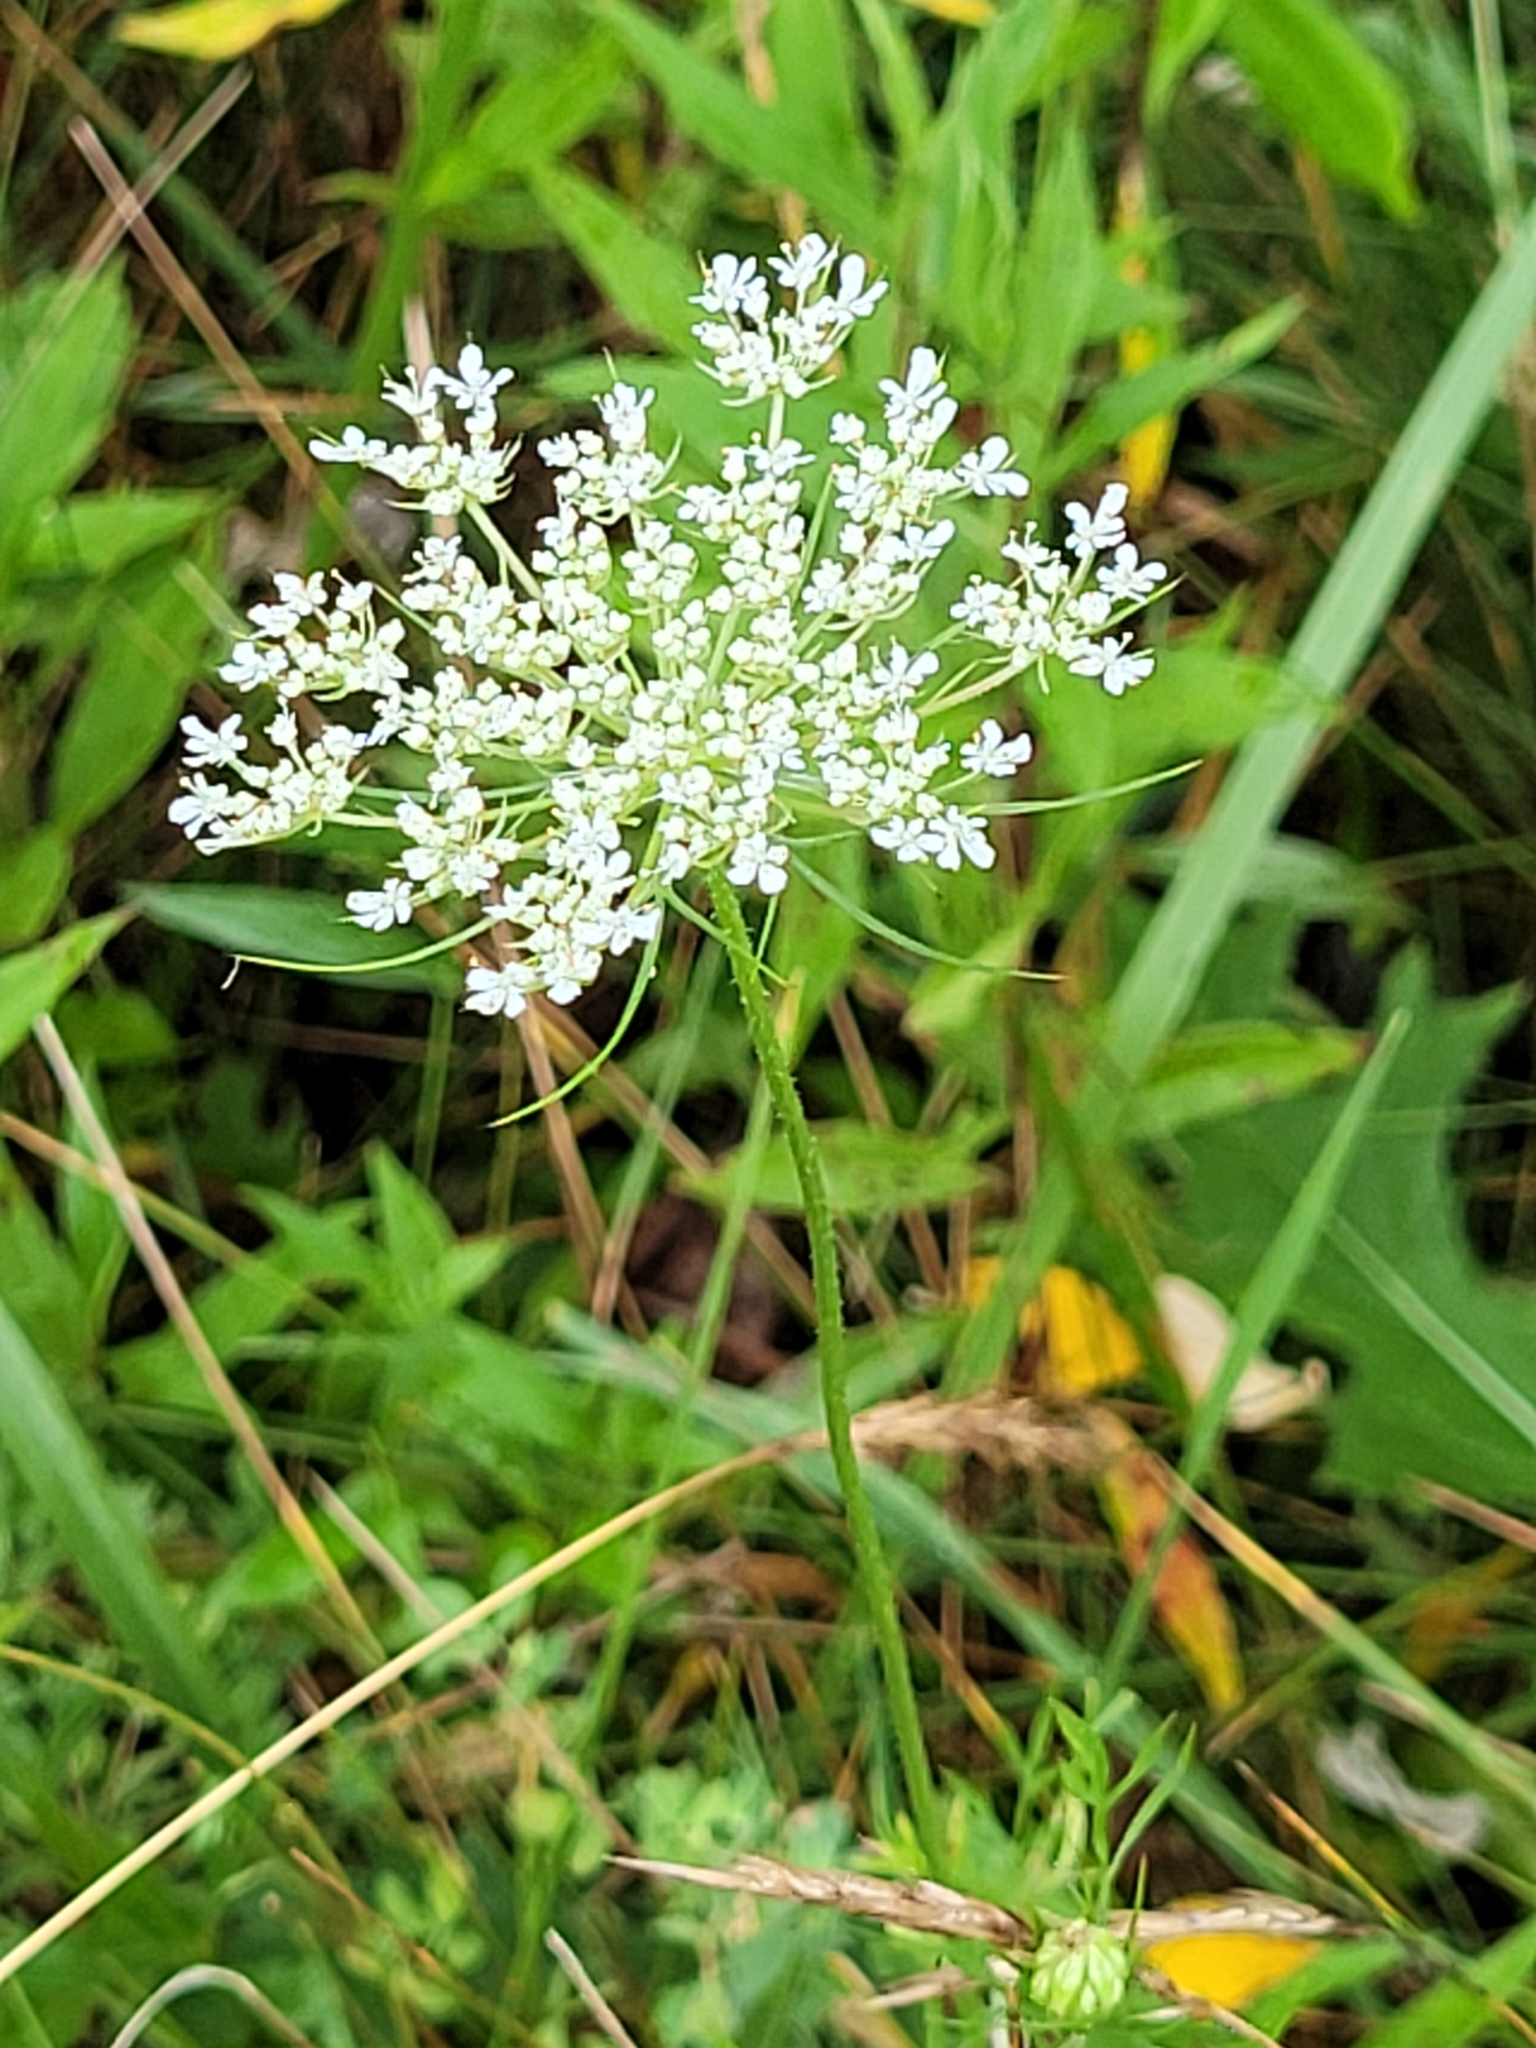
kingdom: Plantae
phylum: Tracheophyta
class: Magnoliopsida
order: Apiales
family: Apiaceae
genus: Daucus
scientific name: Daucus carota
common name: Wild carrot
